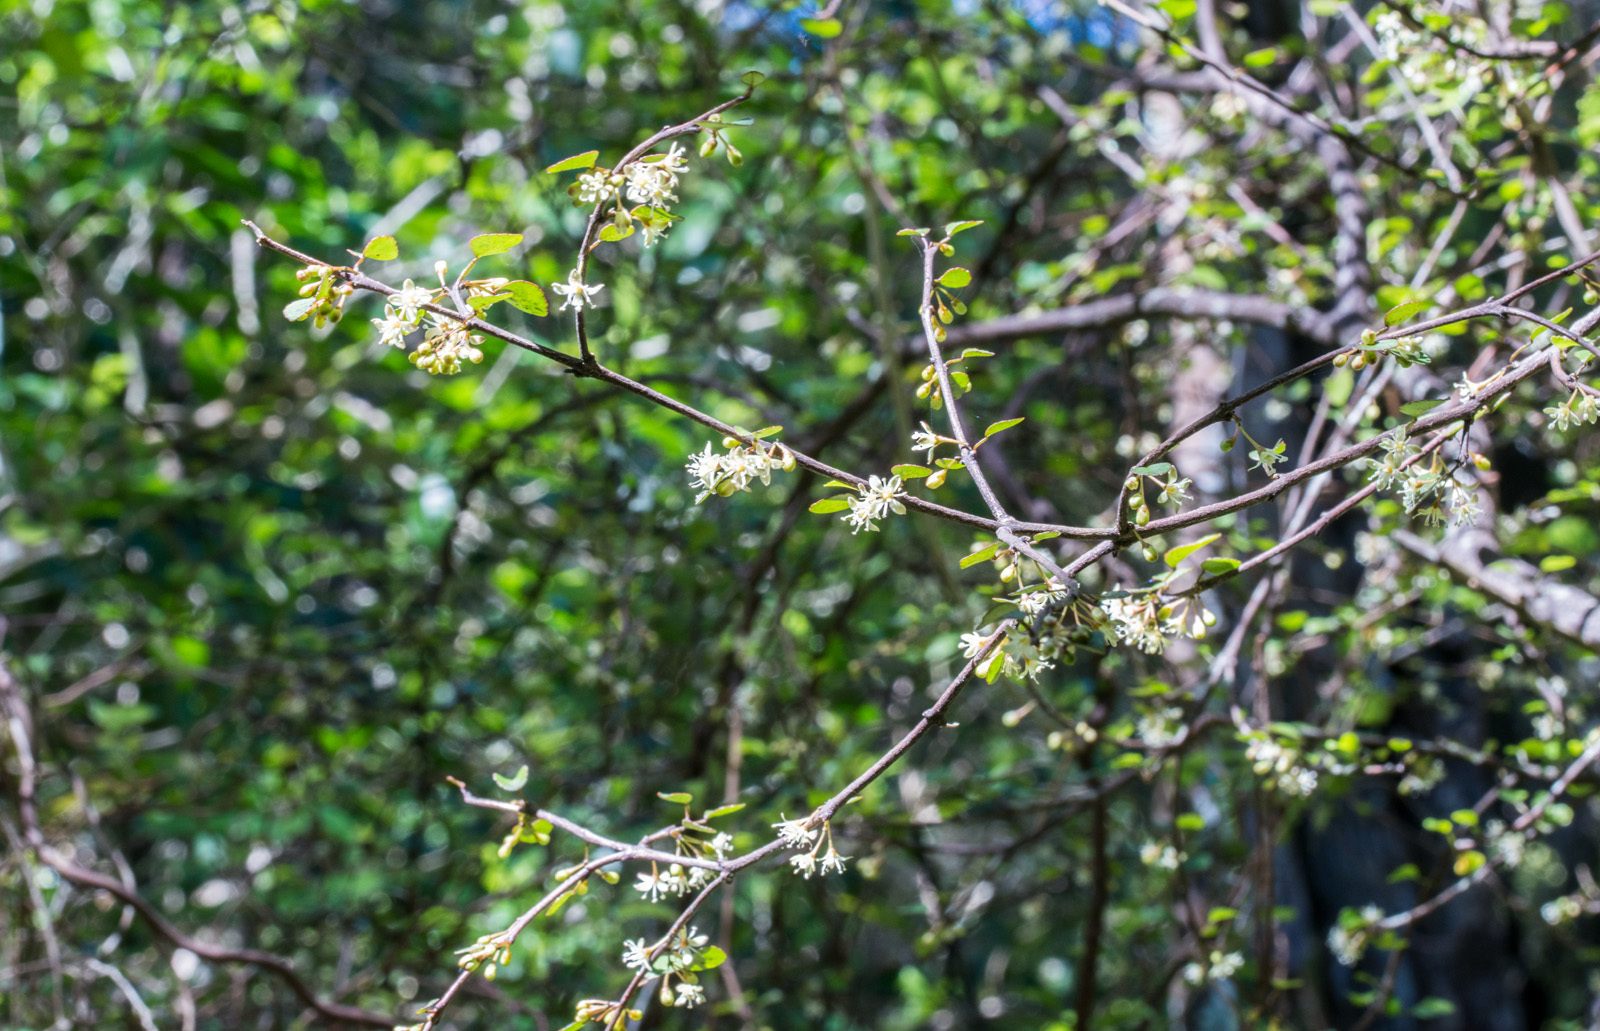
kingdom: Plantae
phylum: Tracheophyta
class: Magnoliopsida
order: Sapindales
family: Rutaceae
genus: Melicope
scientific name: Melicope simplex
